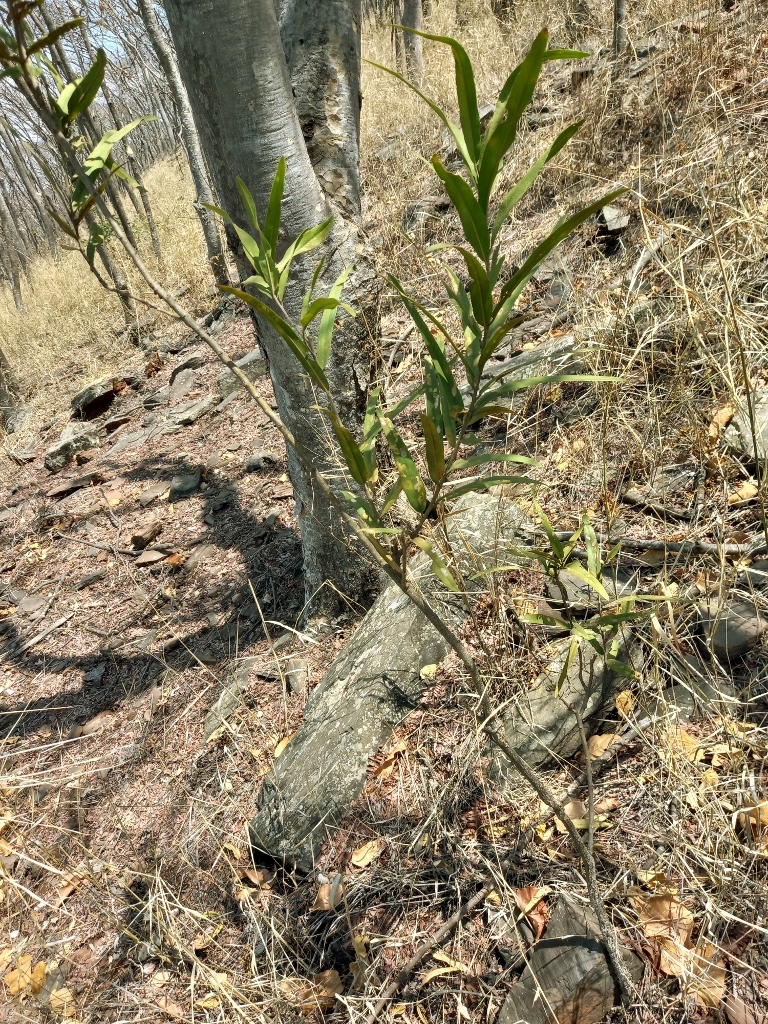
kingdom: Plantae
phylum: Tracheophyta
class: Magnoliopsida
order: Brassicales
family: Capparaceae
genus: Boscia
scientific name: Boscia salicifolia
